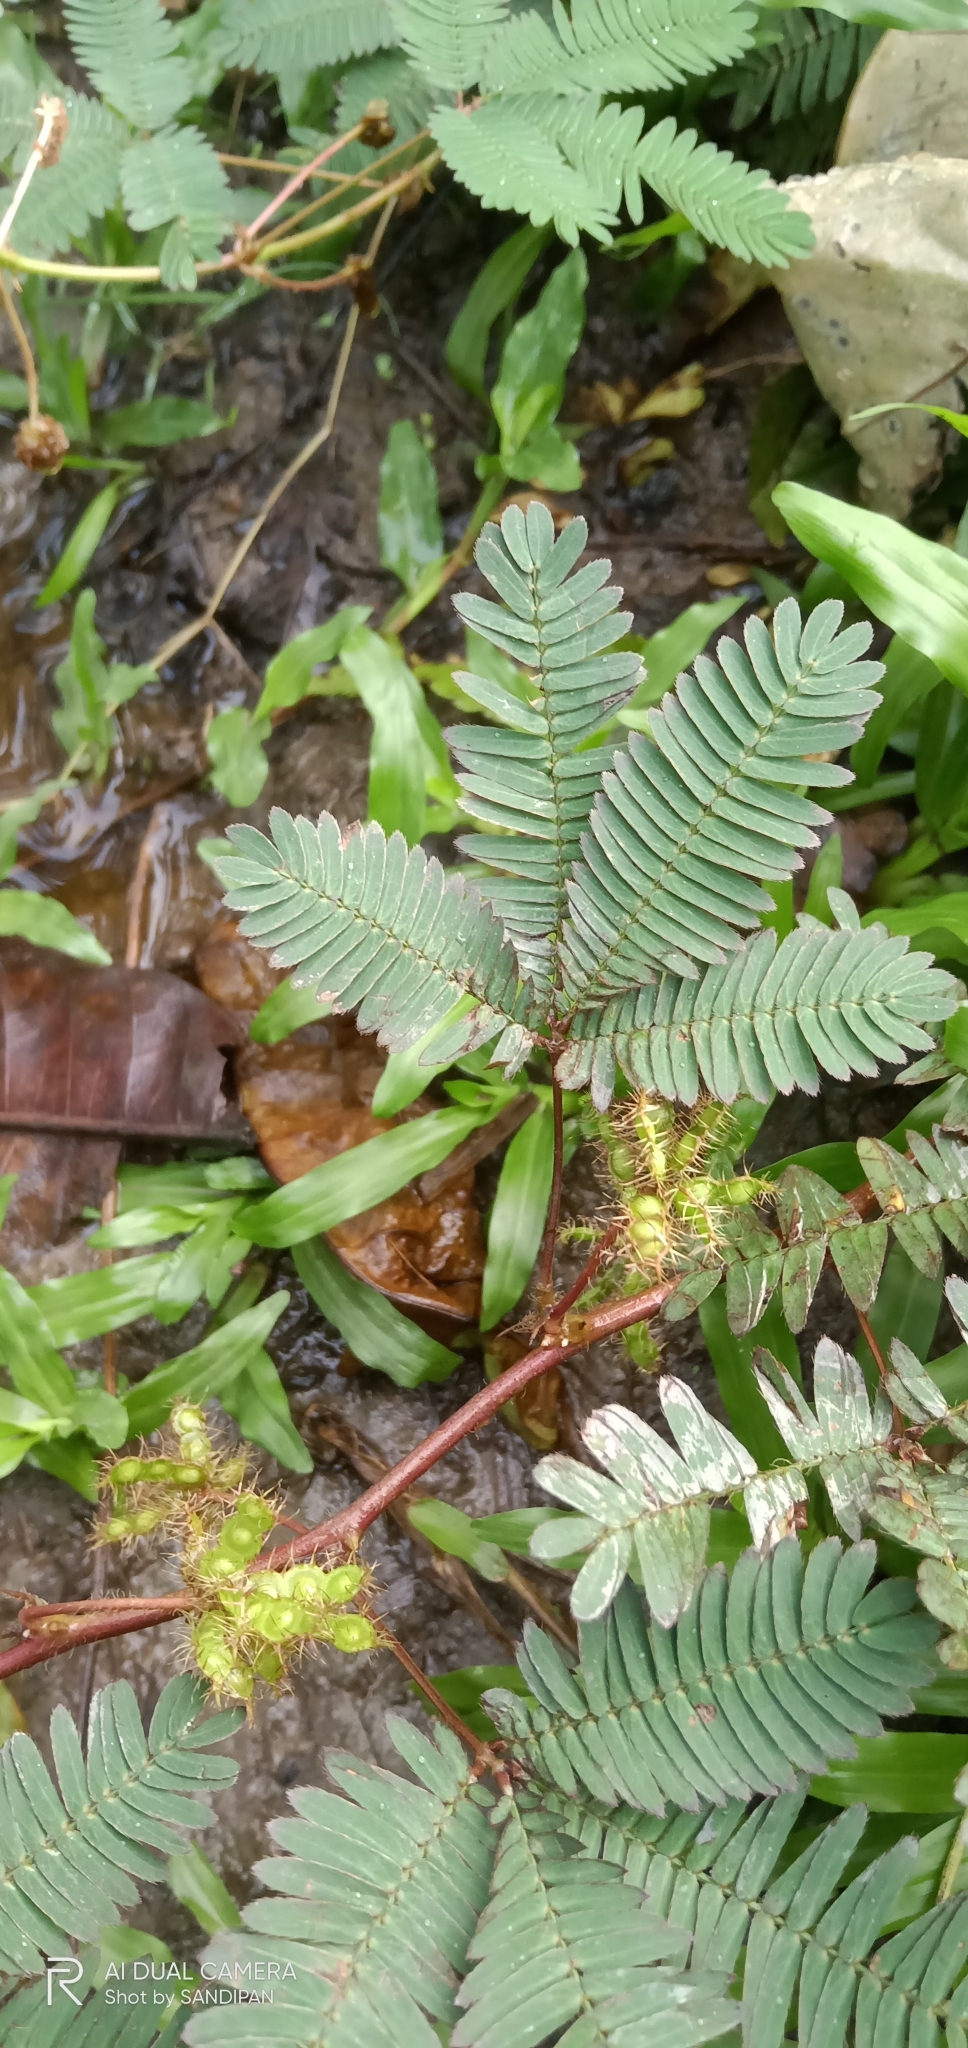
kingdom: Plantae
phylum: Tracheophyta
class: Magnoliopsida
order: Fabales
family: Fabaceae
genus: Mimosa
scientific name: Mimosa pudica
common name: Sensitive plant
